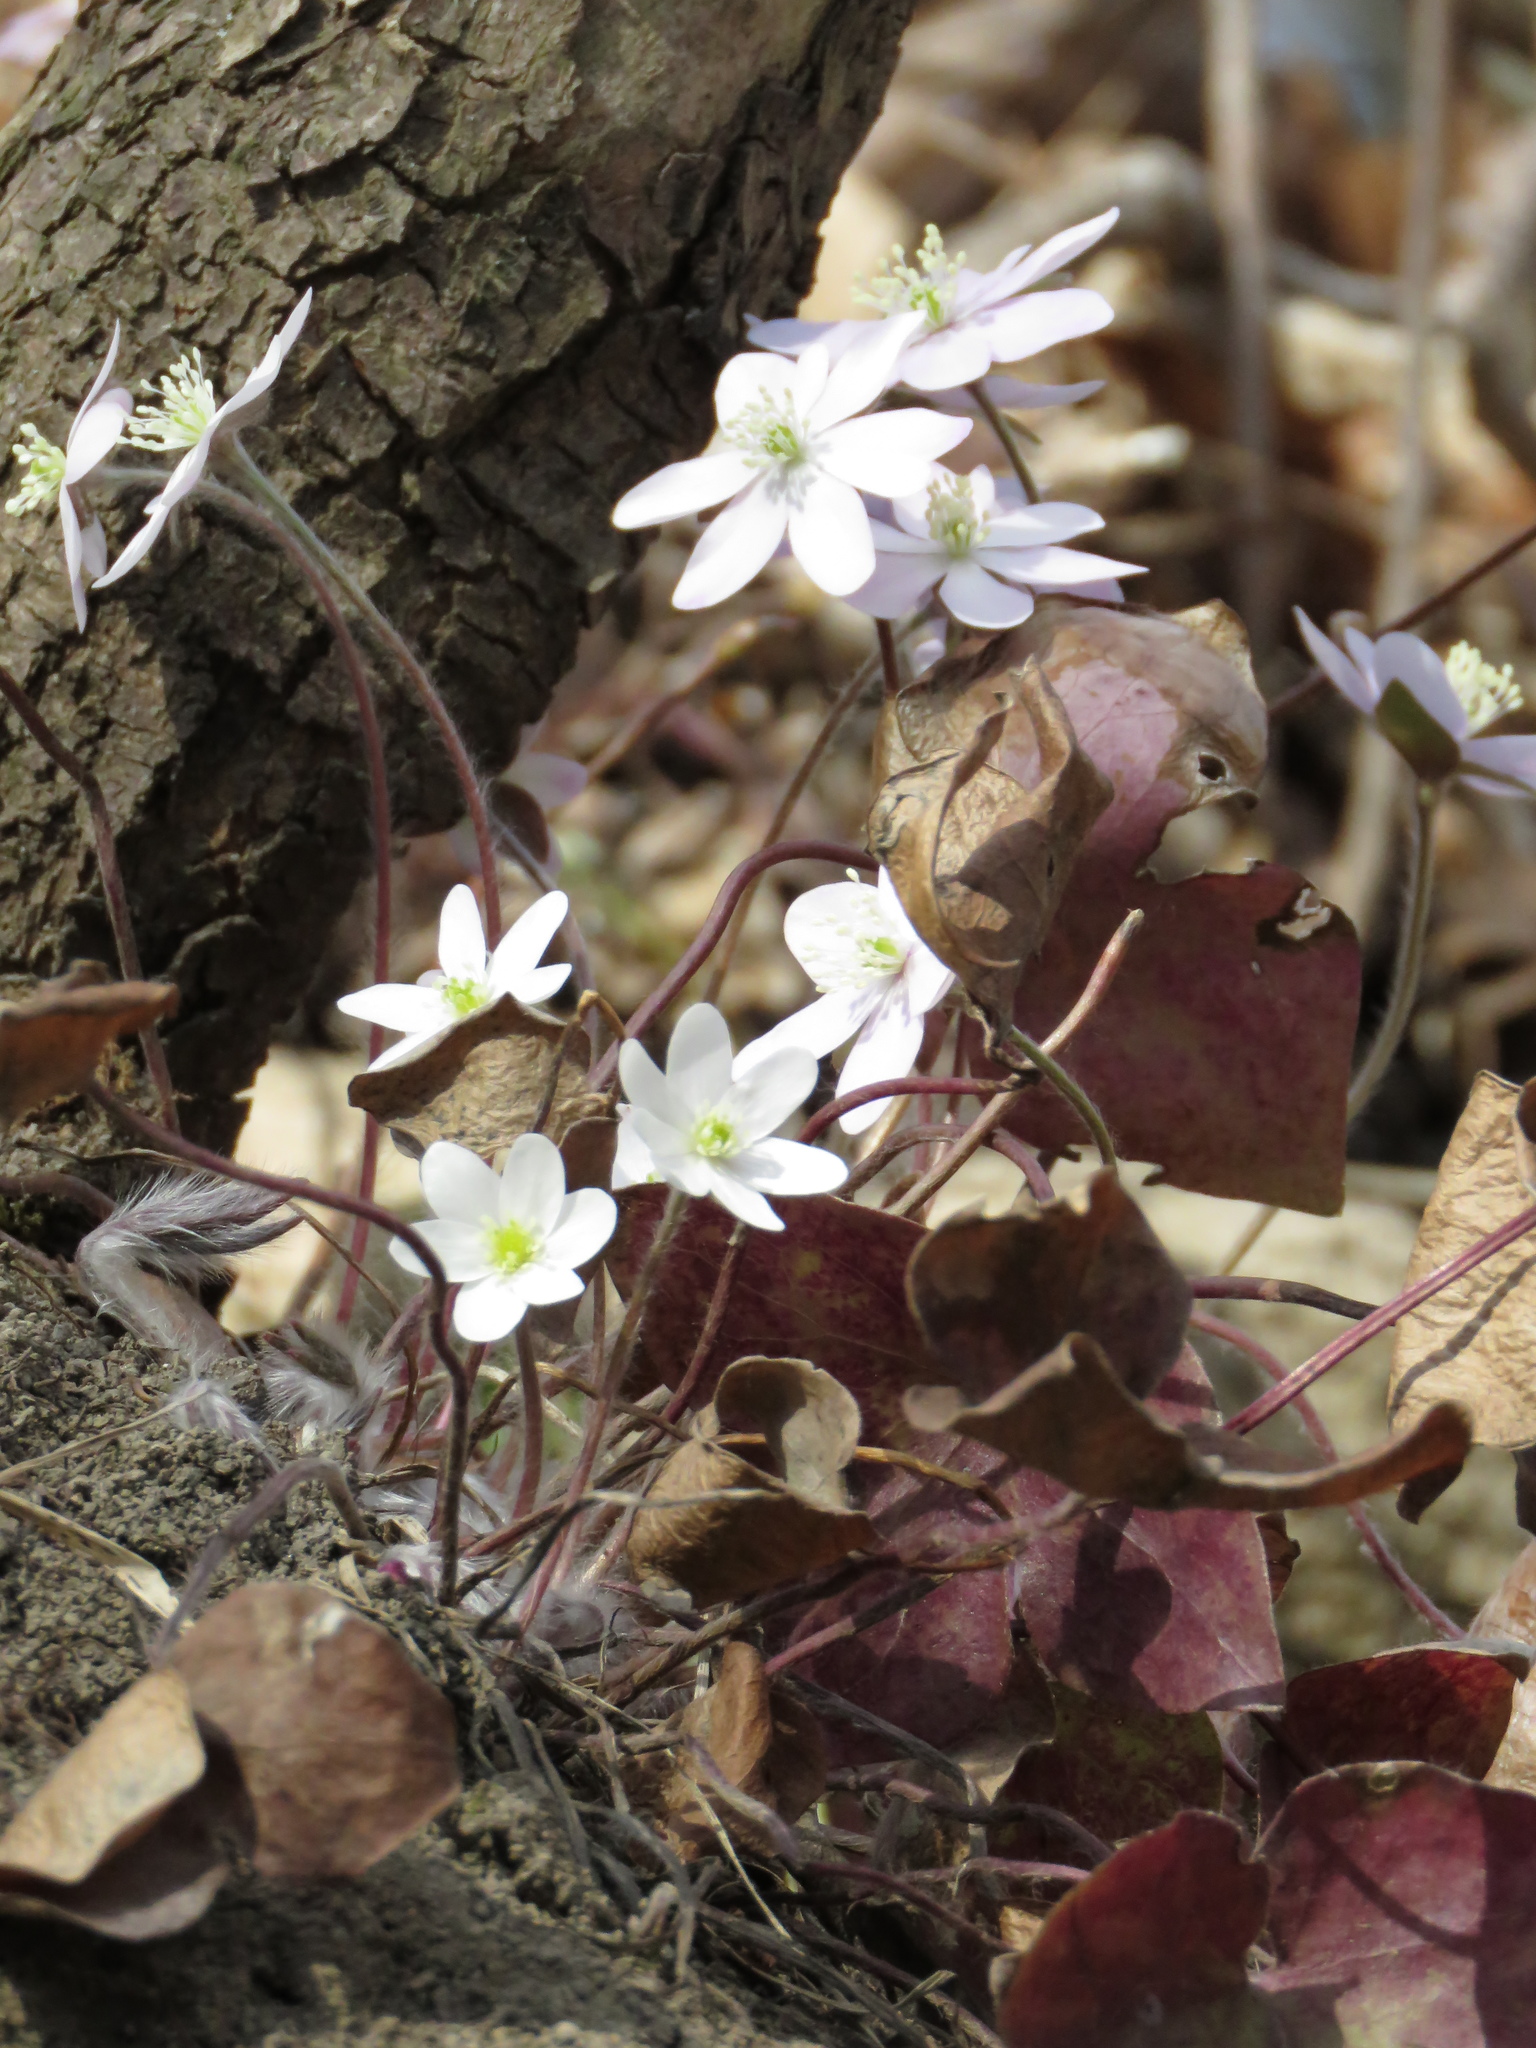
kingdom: Plantae
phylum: Tracheophyta
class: Magnoliopsida
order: Ranunculales
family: Ranunculaceae
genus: Hepatica
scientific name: Hepatica acutiloba
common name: Sharp-lobed hepatica
